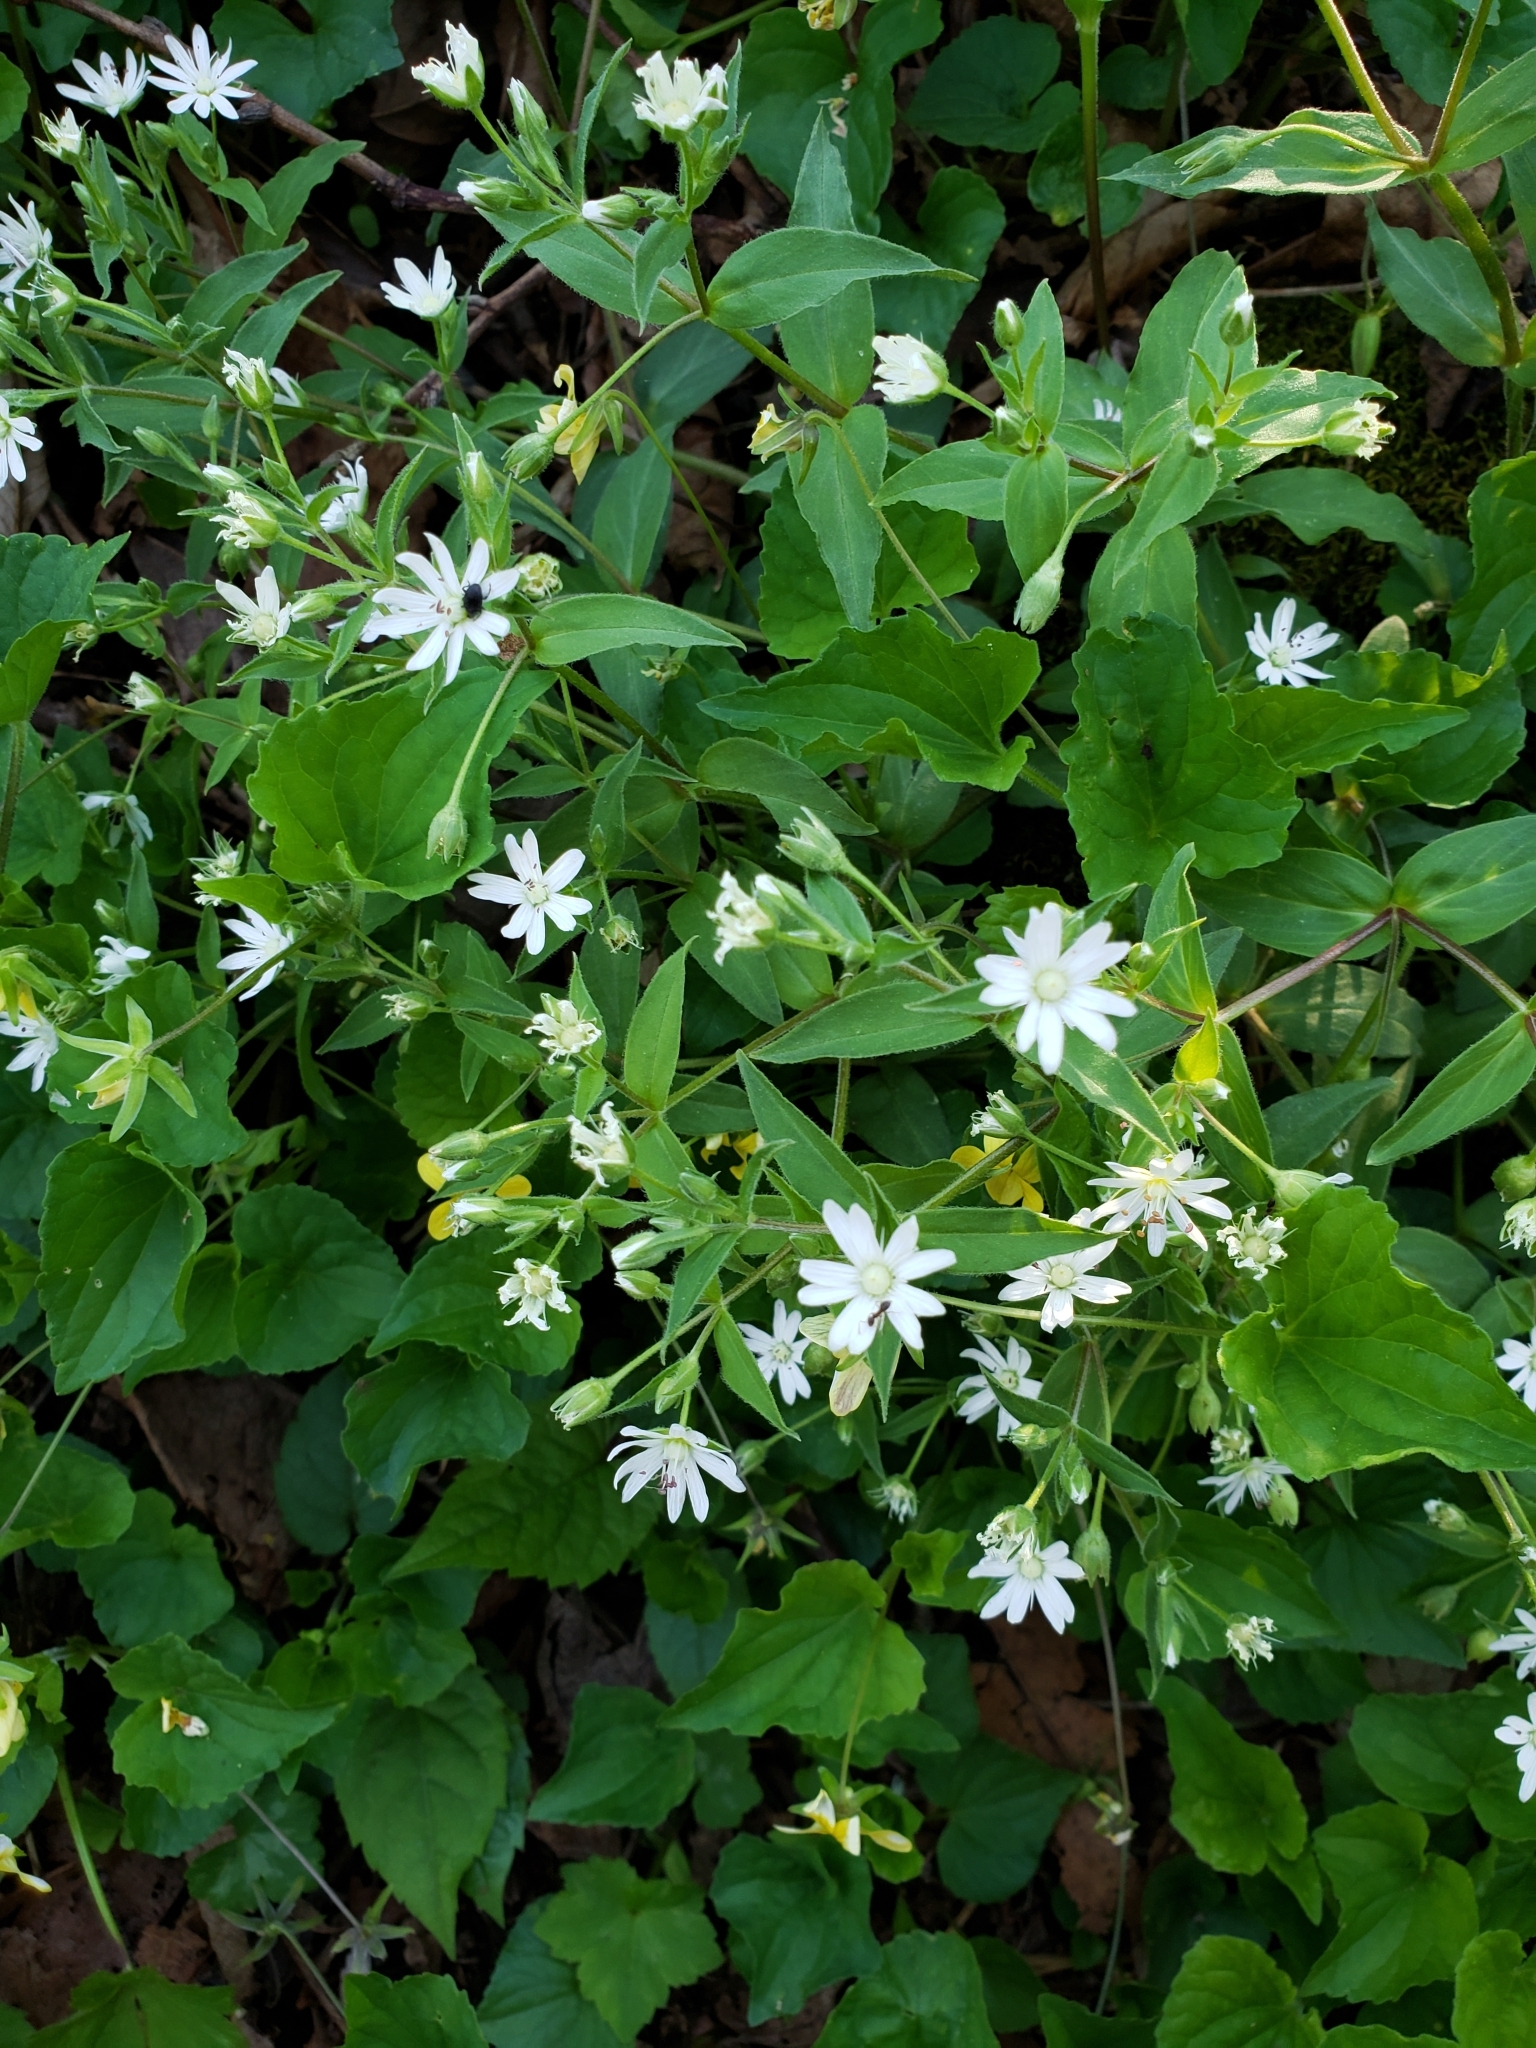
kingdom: Plantae
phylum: Tracheophyta
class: Magnoliopsida
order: Caryophyllales
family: Caryophyllaceae
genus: Stellaria
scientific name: Stellaria pubera
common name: Star chickweed
